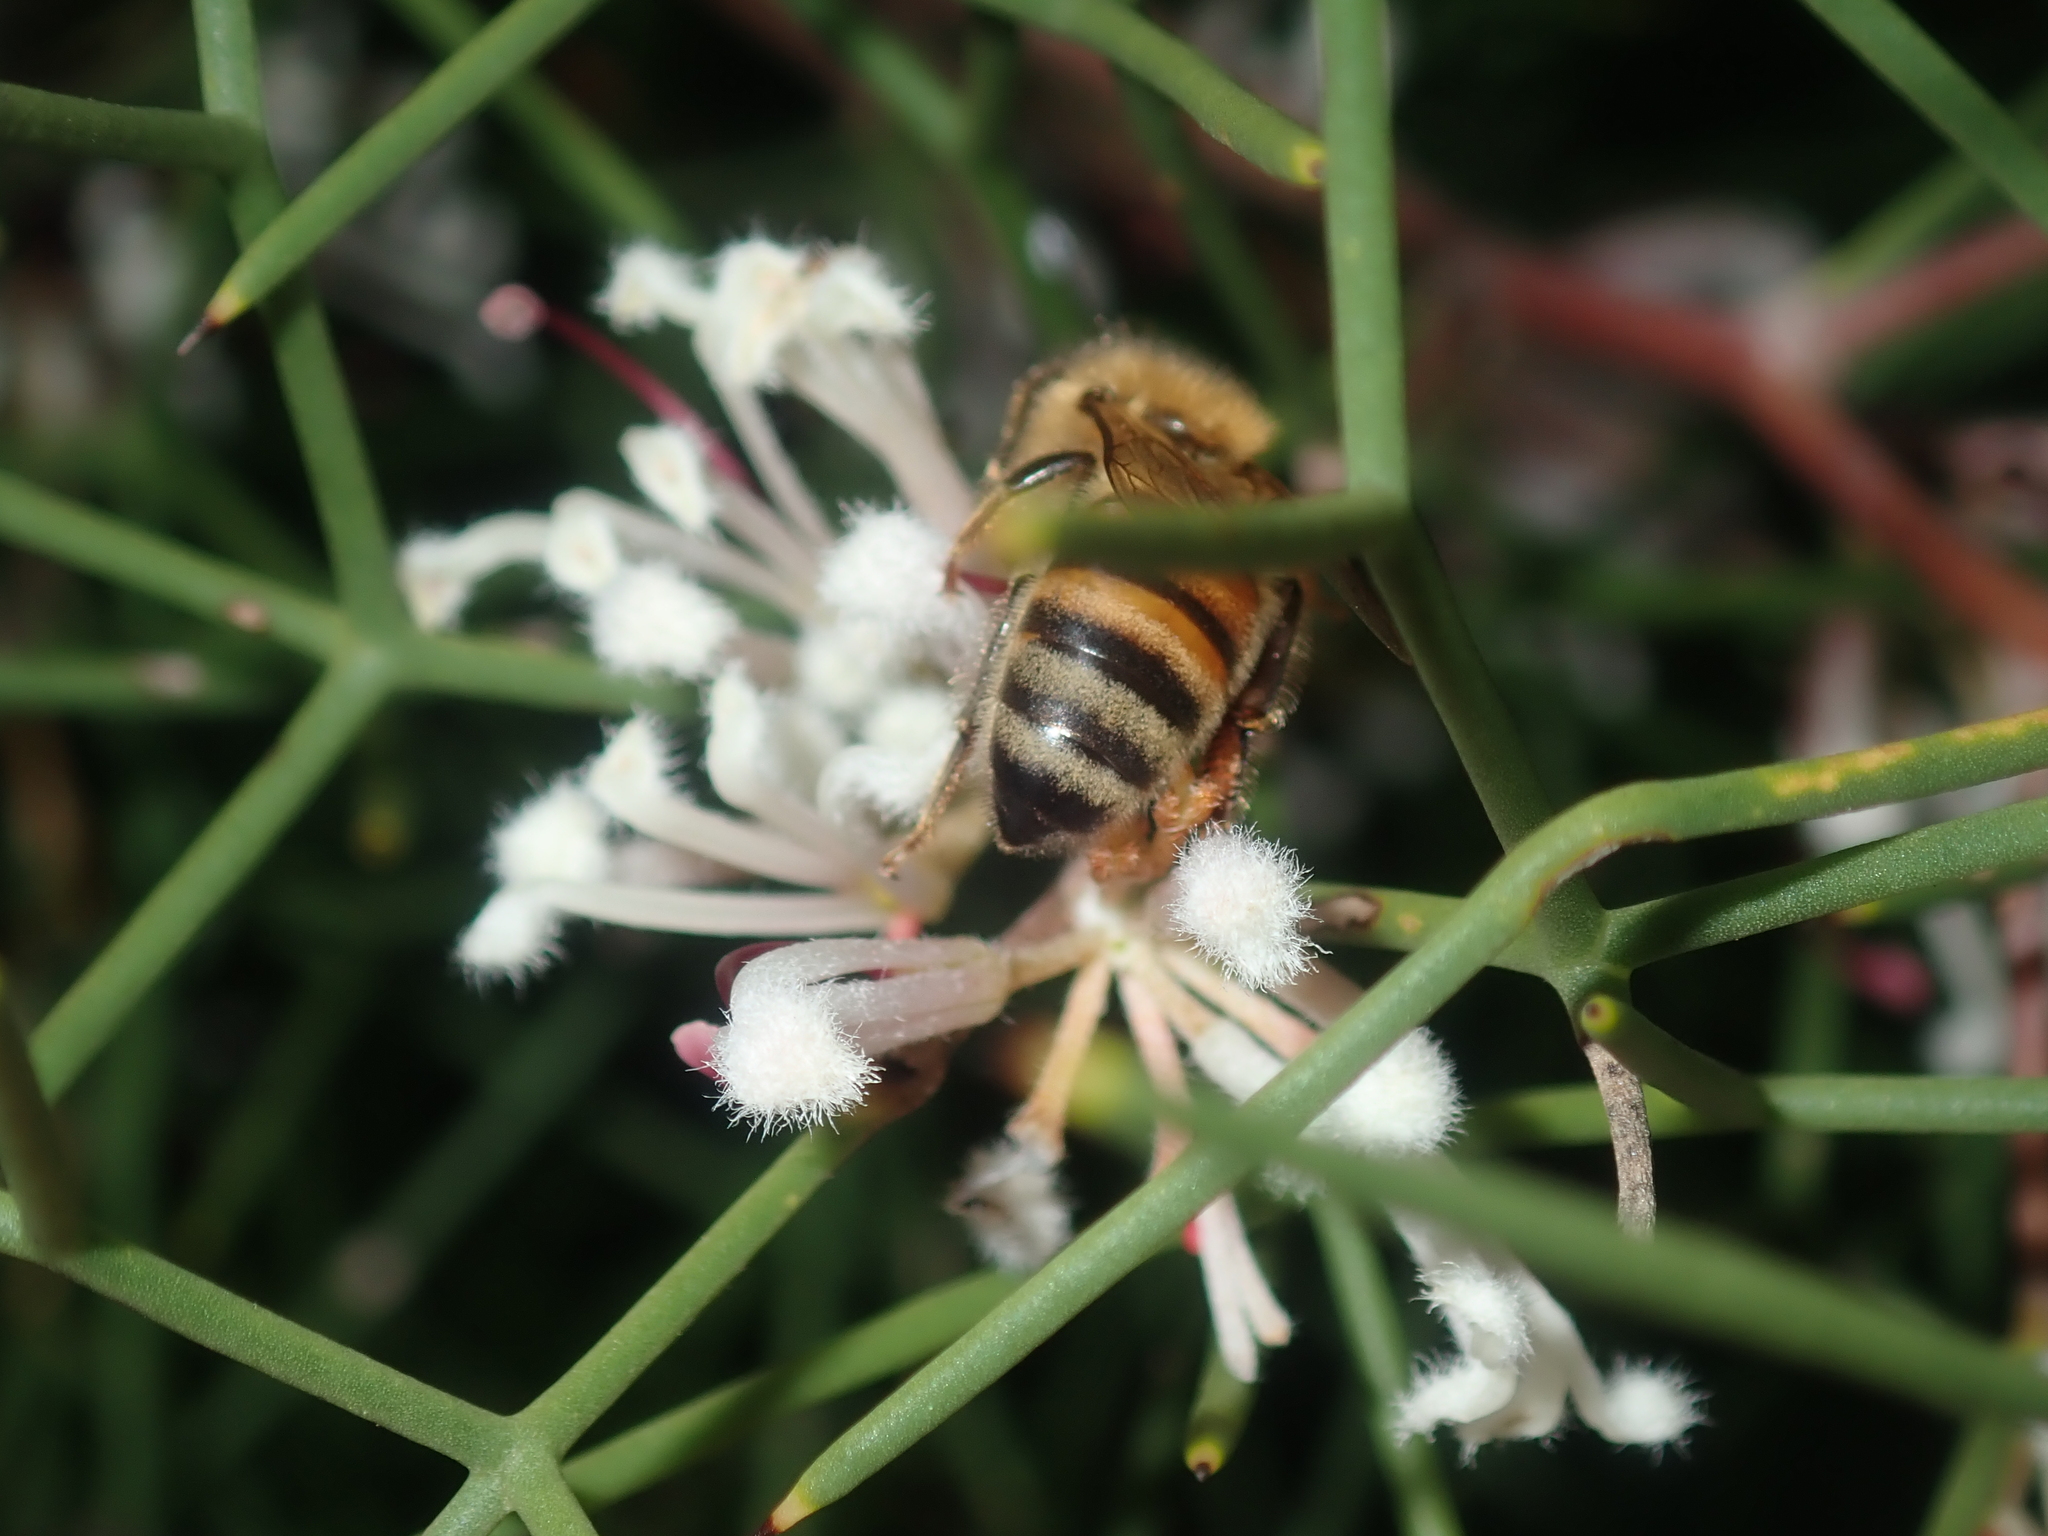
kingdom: Animalia
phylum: Arthropoda
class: Insecta
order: Hymenoptera
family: Apidae
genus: Apis
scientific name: Apis mellifera
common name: Honey bee
